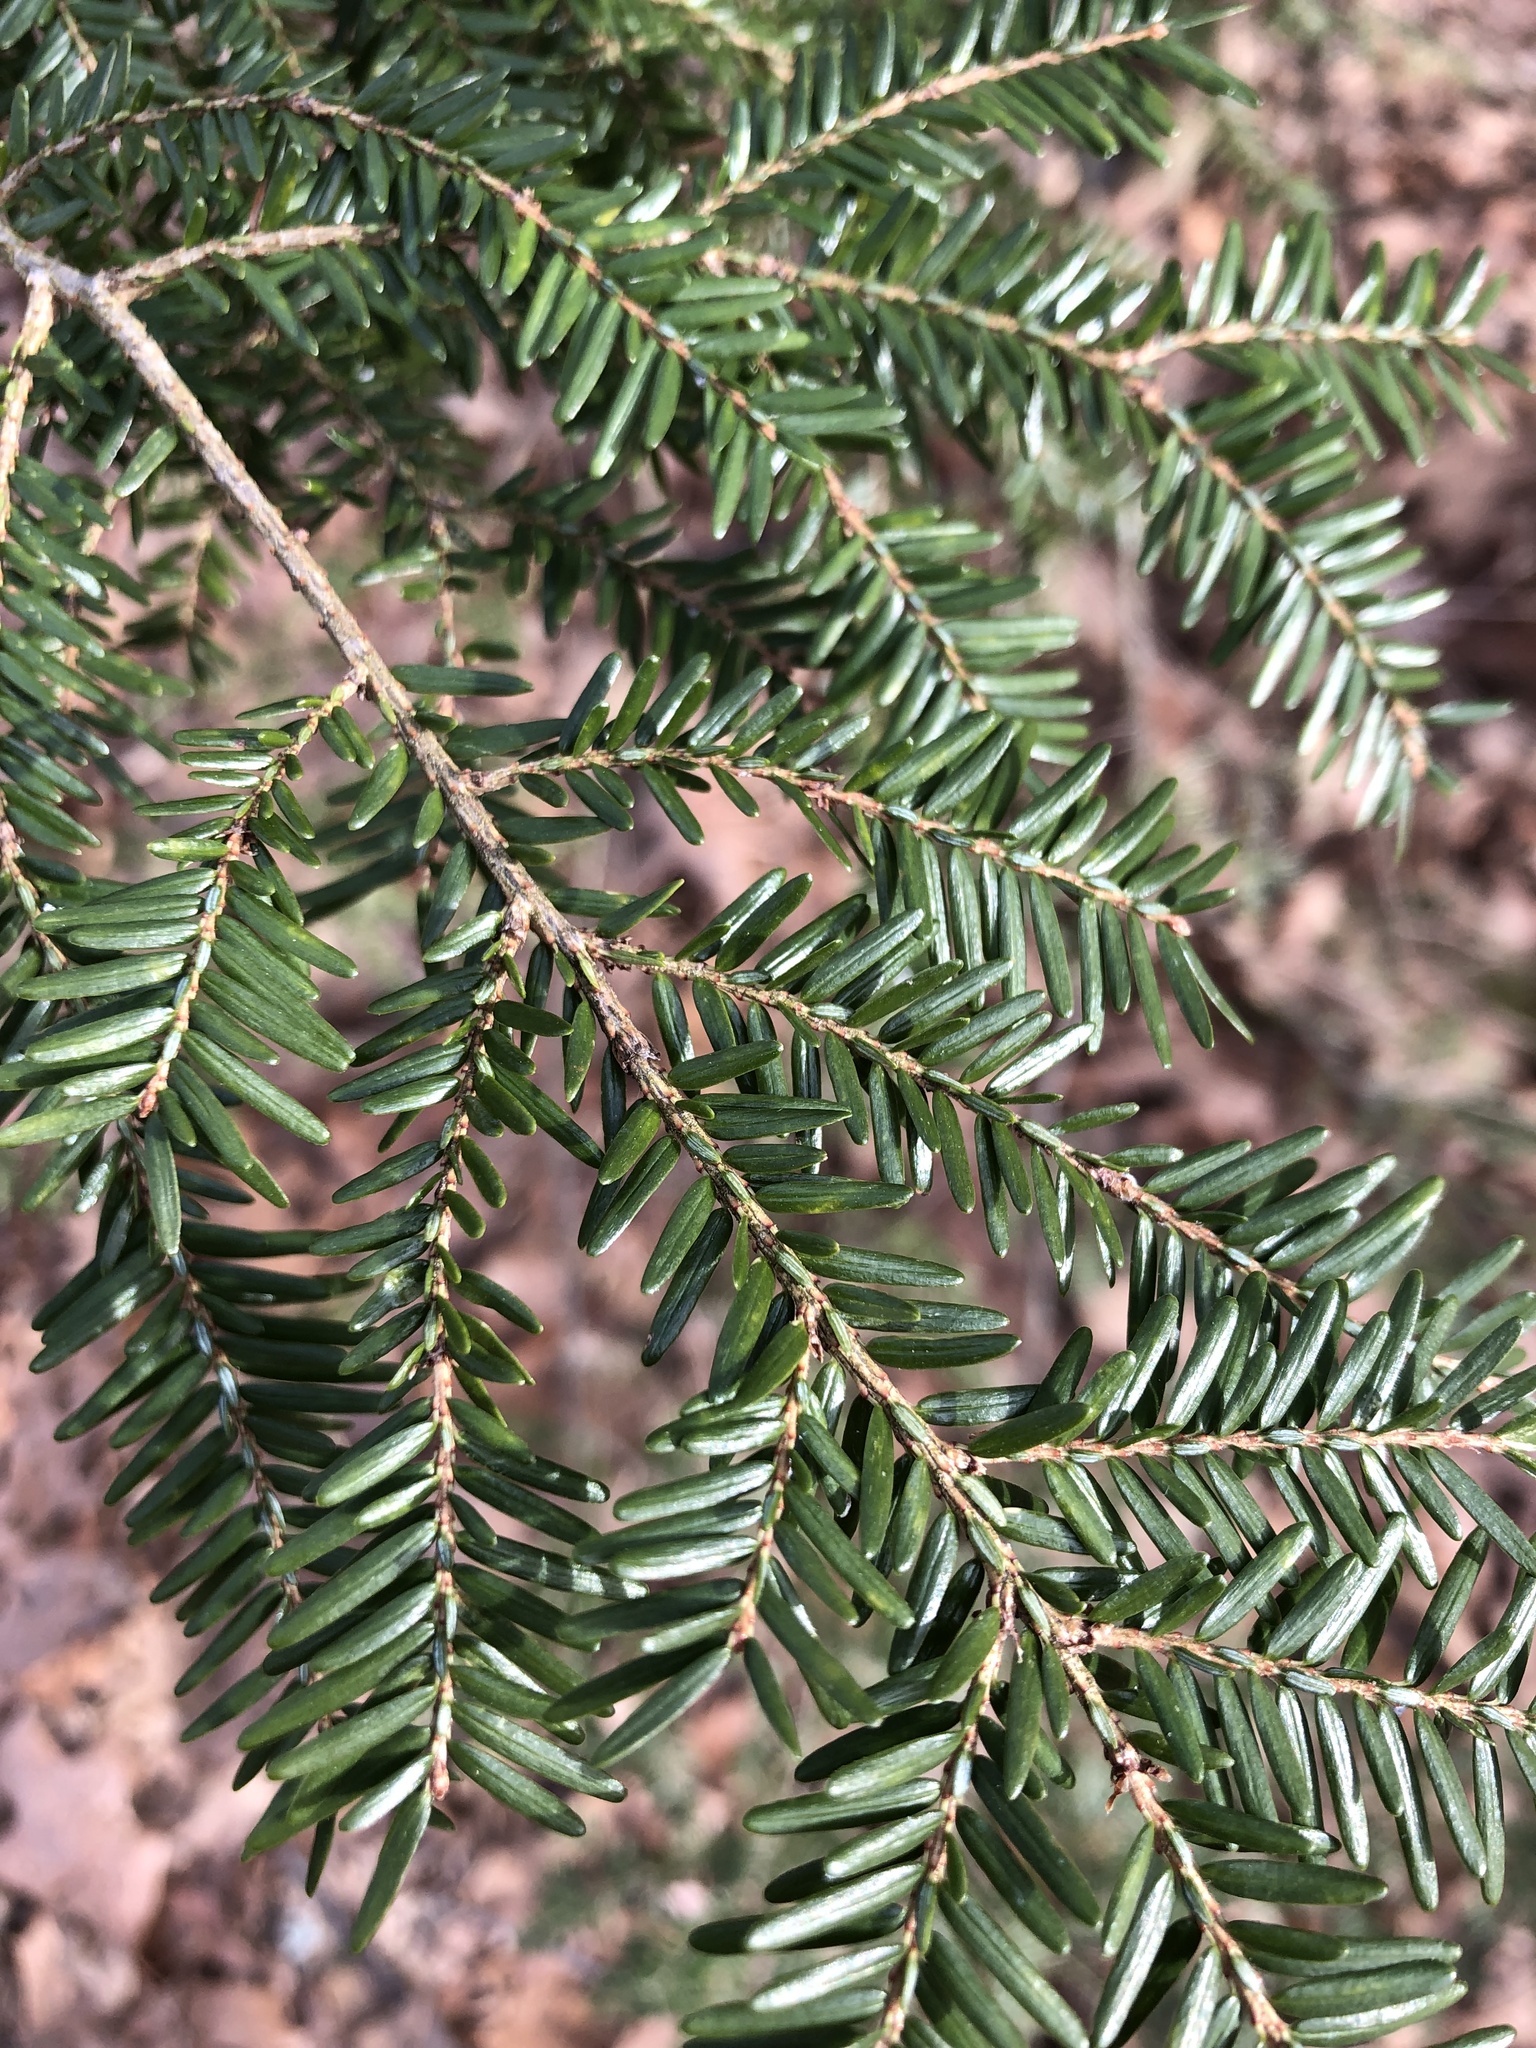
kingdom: Plantae
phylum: Tracheophyta
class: Pinopsida
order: Pinales
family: Pinaceae
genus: Tsuga
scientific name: Tsuga canadensis
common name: Eastern hemlock
